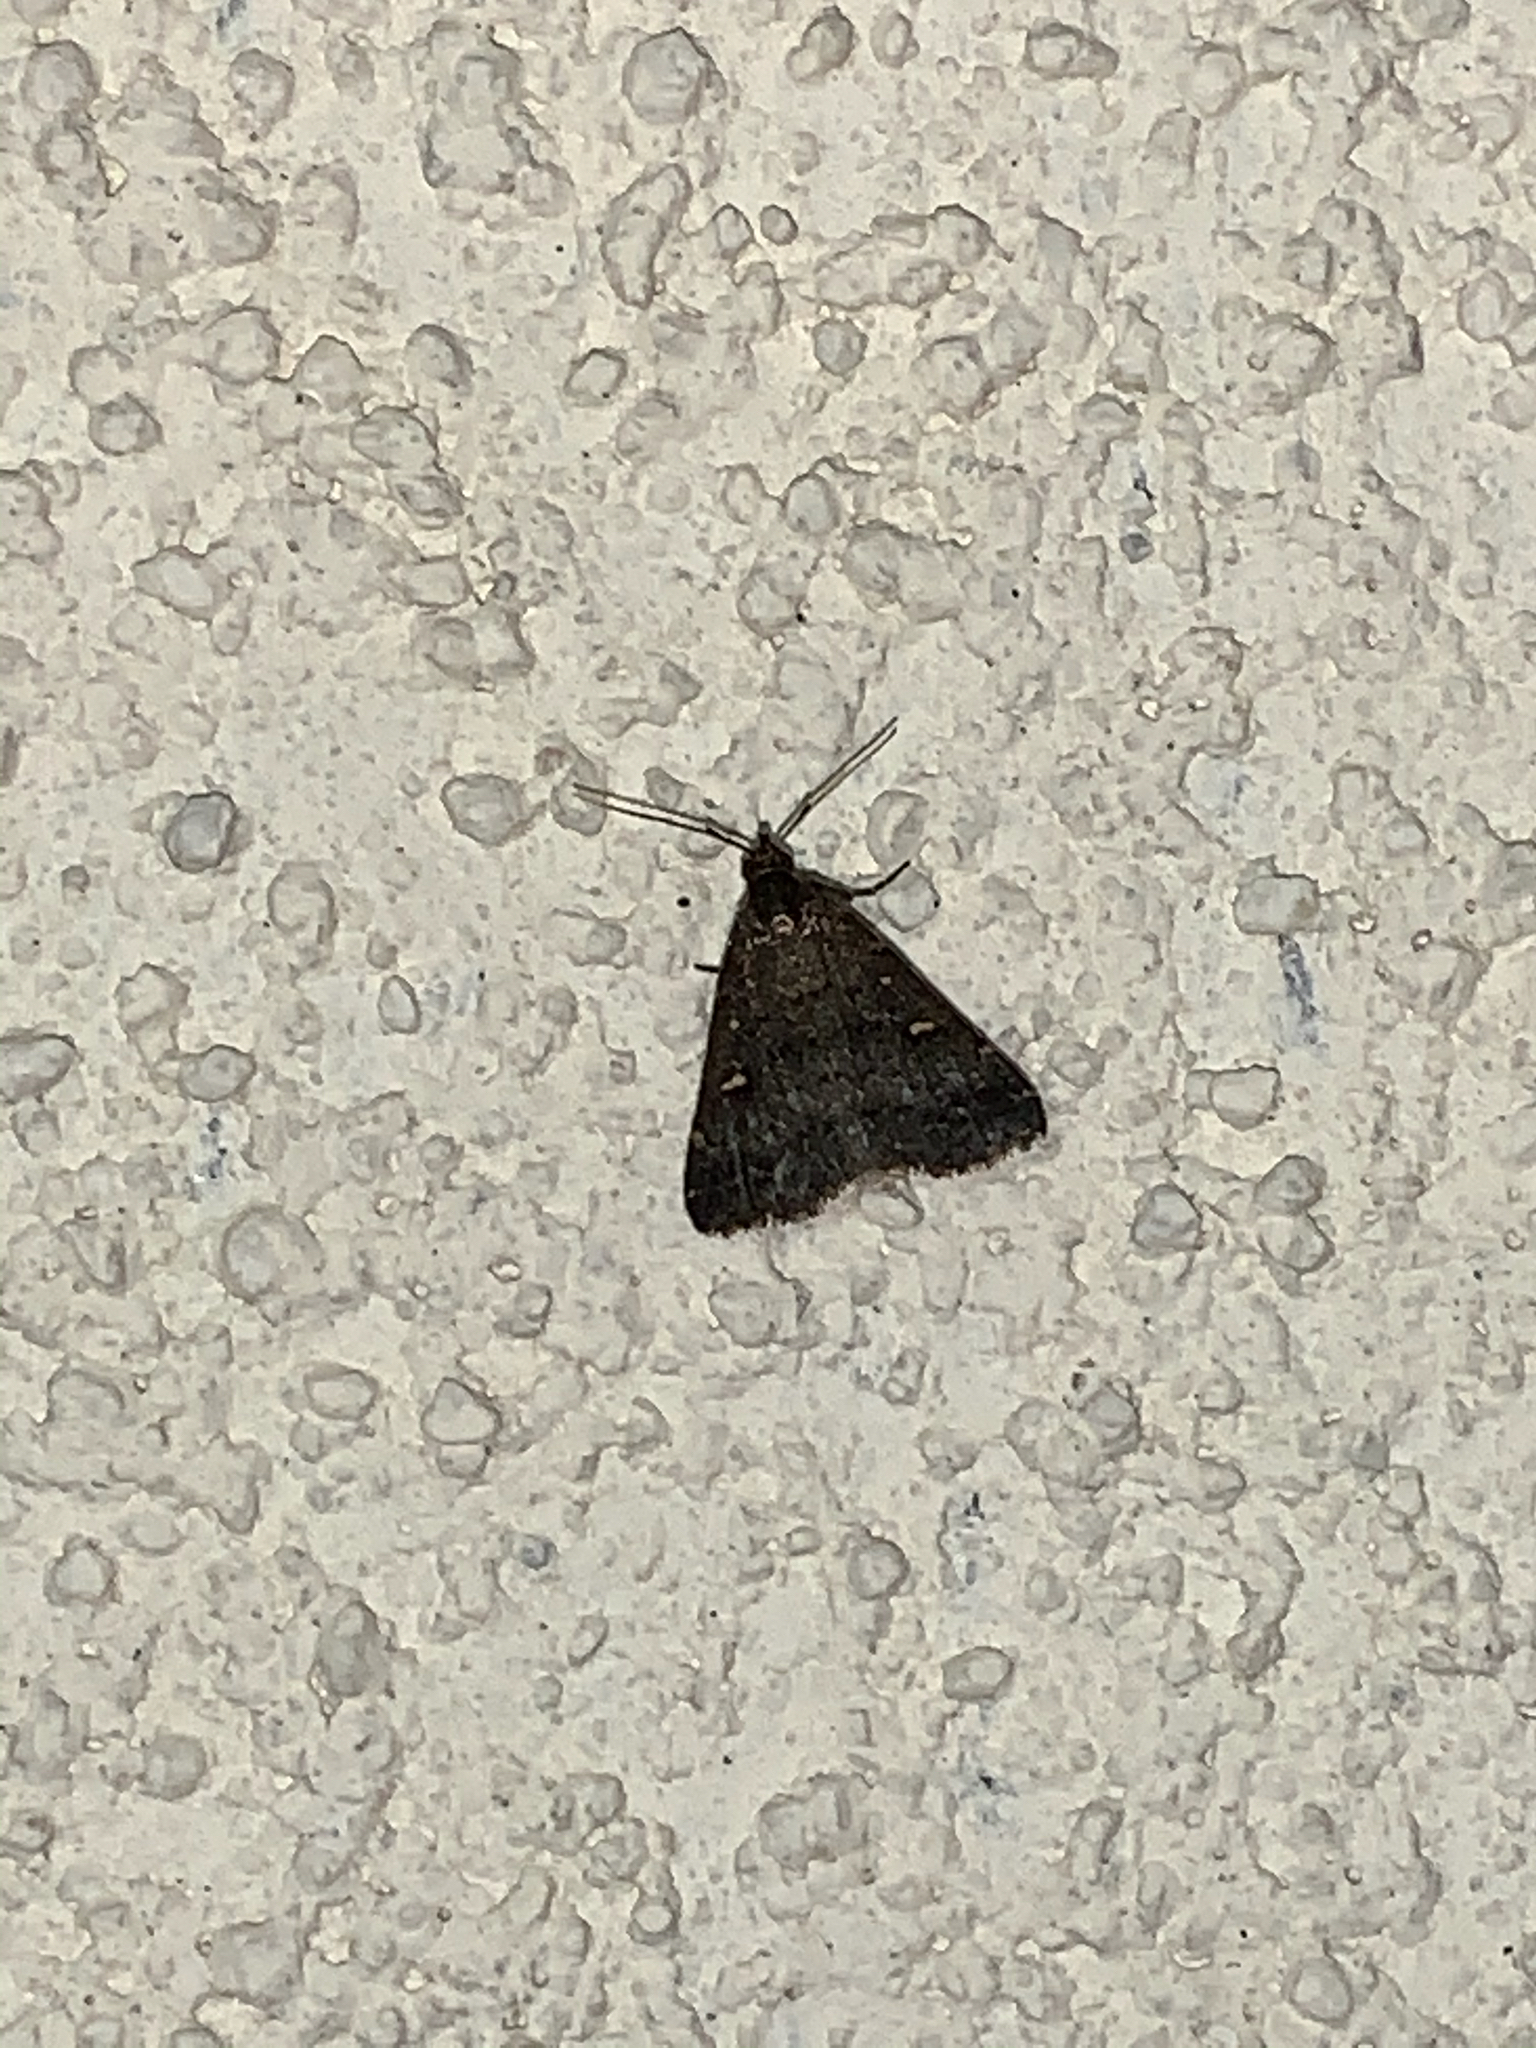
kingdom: Animalia
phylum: Arthropoda
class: Insecta
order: Lepidoptera
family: Erebidae
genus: Tetanolita
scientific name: Tetanolita mynesalis
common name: Smoky tetanolita moth
